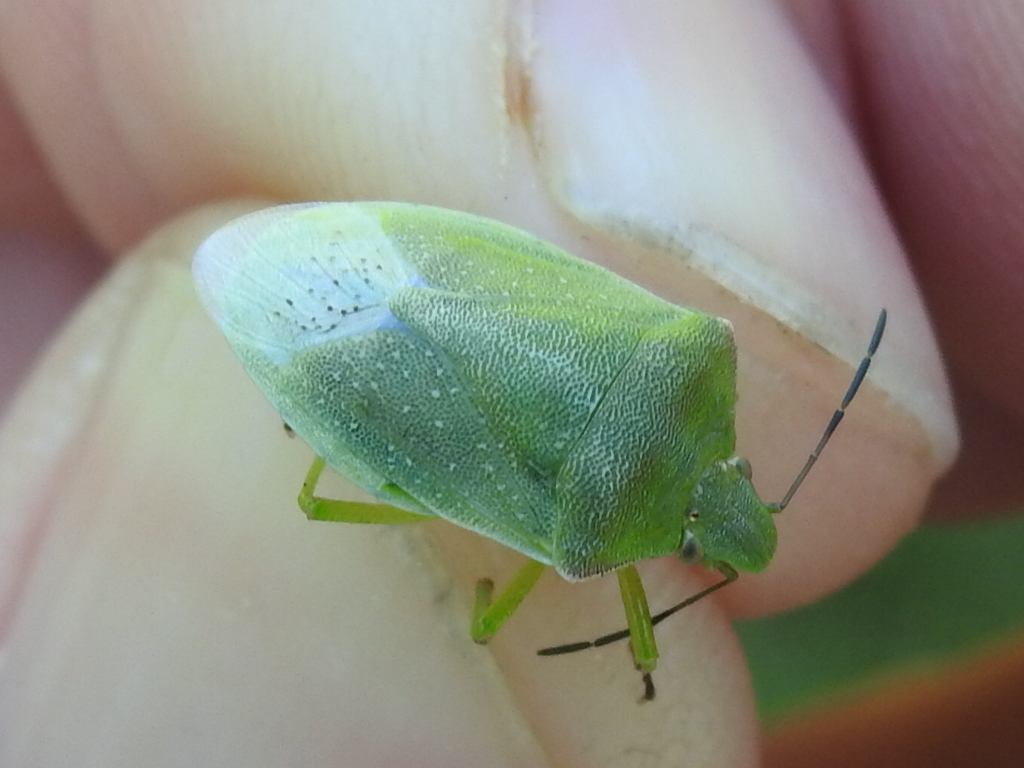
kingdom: Animalia
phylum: Arthropoda
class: Insecta
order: Hemiptera
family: Pentatomidae
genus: Thyanta
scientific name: Thyanta custator
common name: Stink bug
